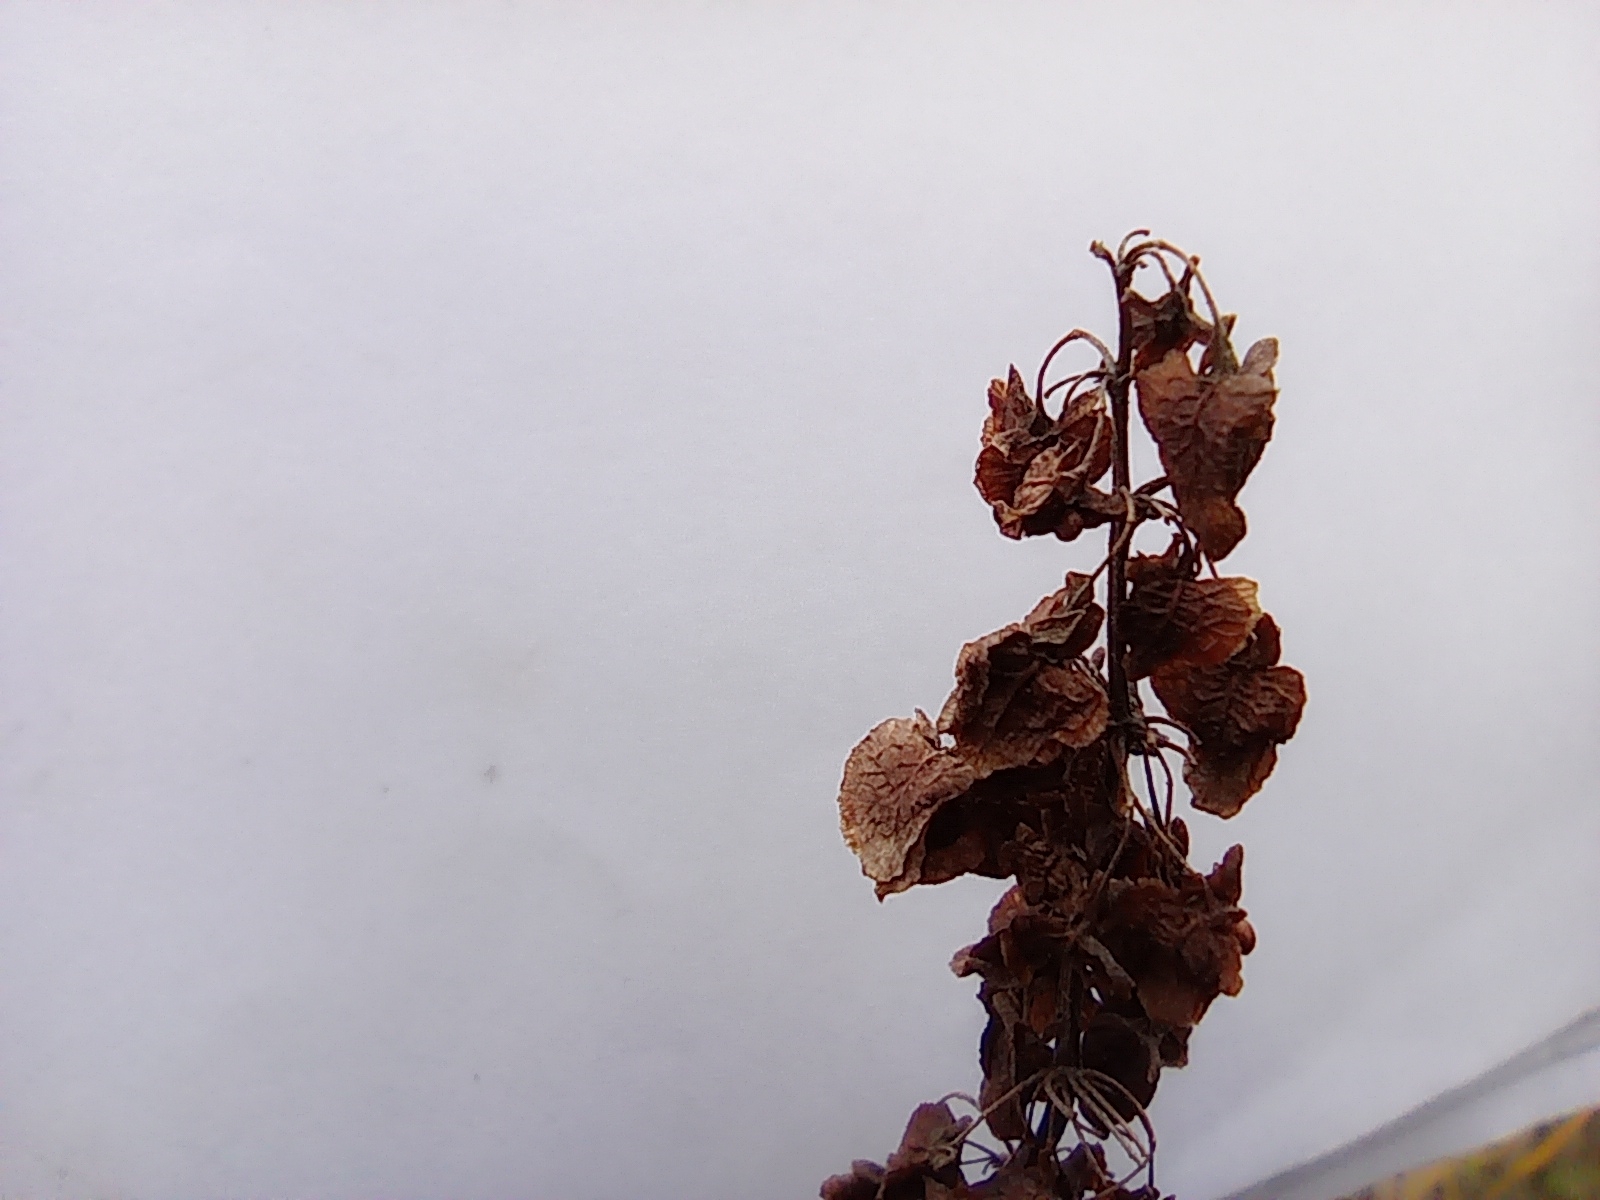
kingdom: Plantae
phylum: Tracheophyta
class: Magnoliopsida
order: Caryophyllales
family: Polygonaceae
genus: Rumex
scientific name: Rumex confertus
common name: Russian dock
